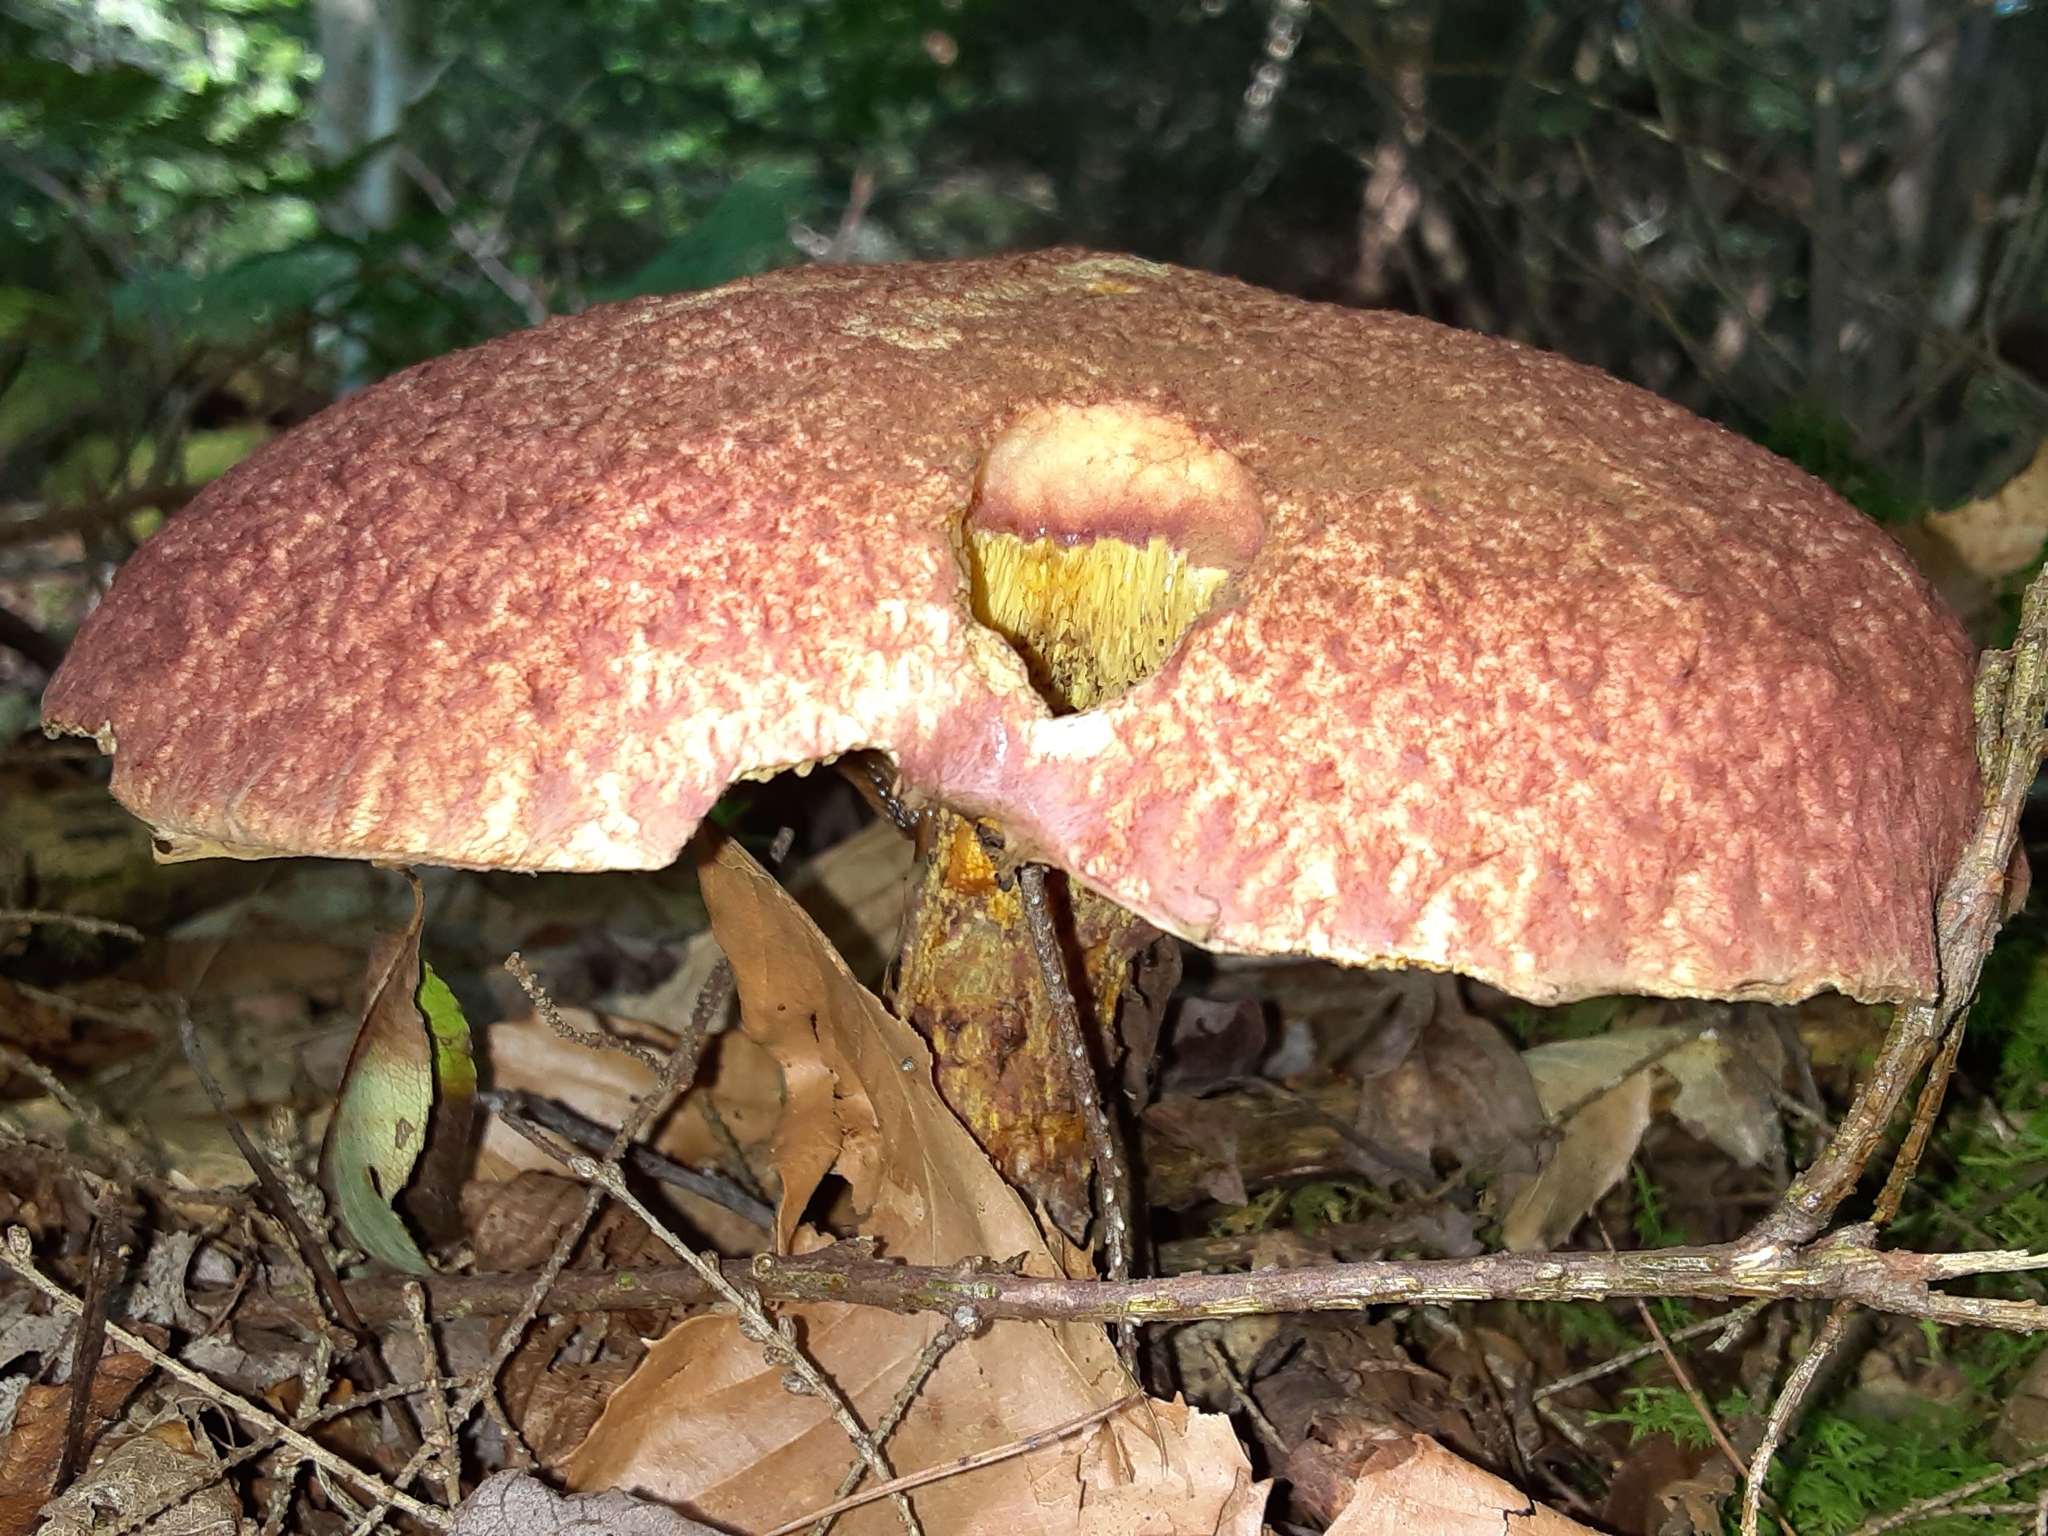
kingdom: Fungi
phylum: Basidiomycota
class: Agaricomycetes
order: Boletales
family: Suillaceae
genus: Suillus
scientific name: Suillus spraguei
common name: Painted suillus
